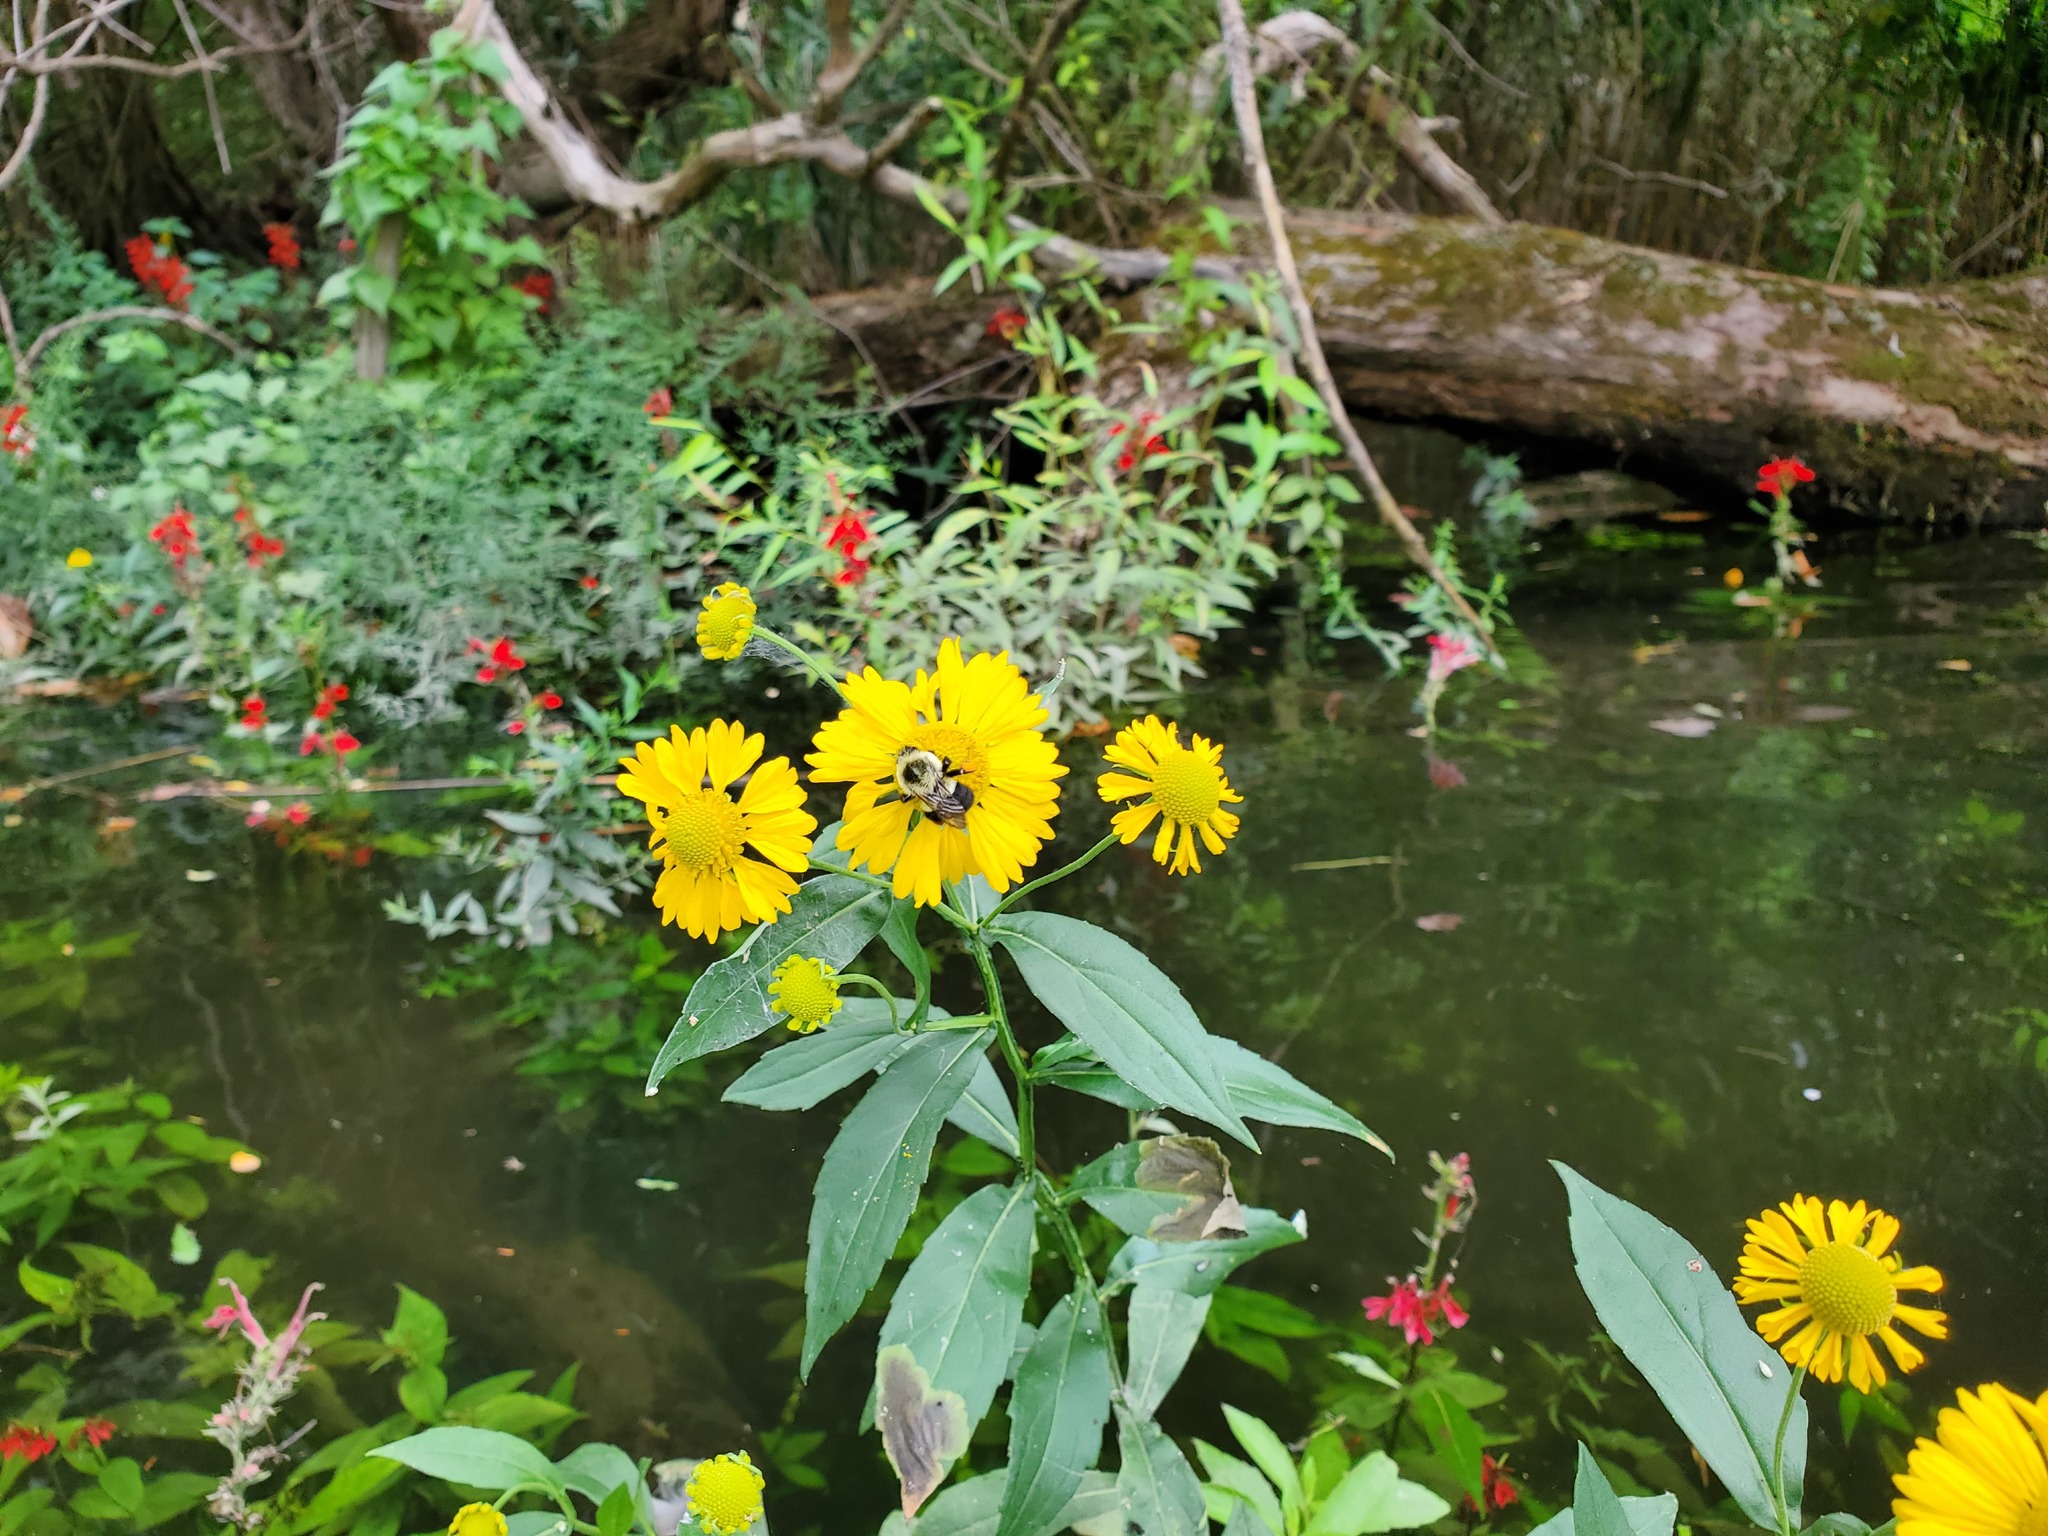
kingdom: Plantae
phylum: Tracheophyta
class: Magnoliopsida
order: Asterales
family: Asteraceae
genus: Helenium
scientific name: Helenium autumnale
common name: Sneezeweed
